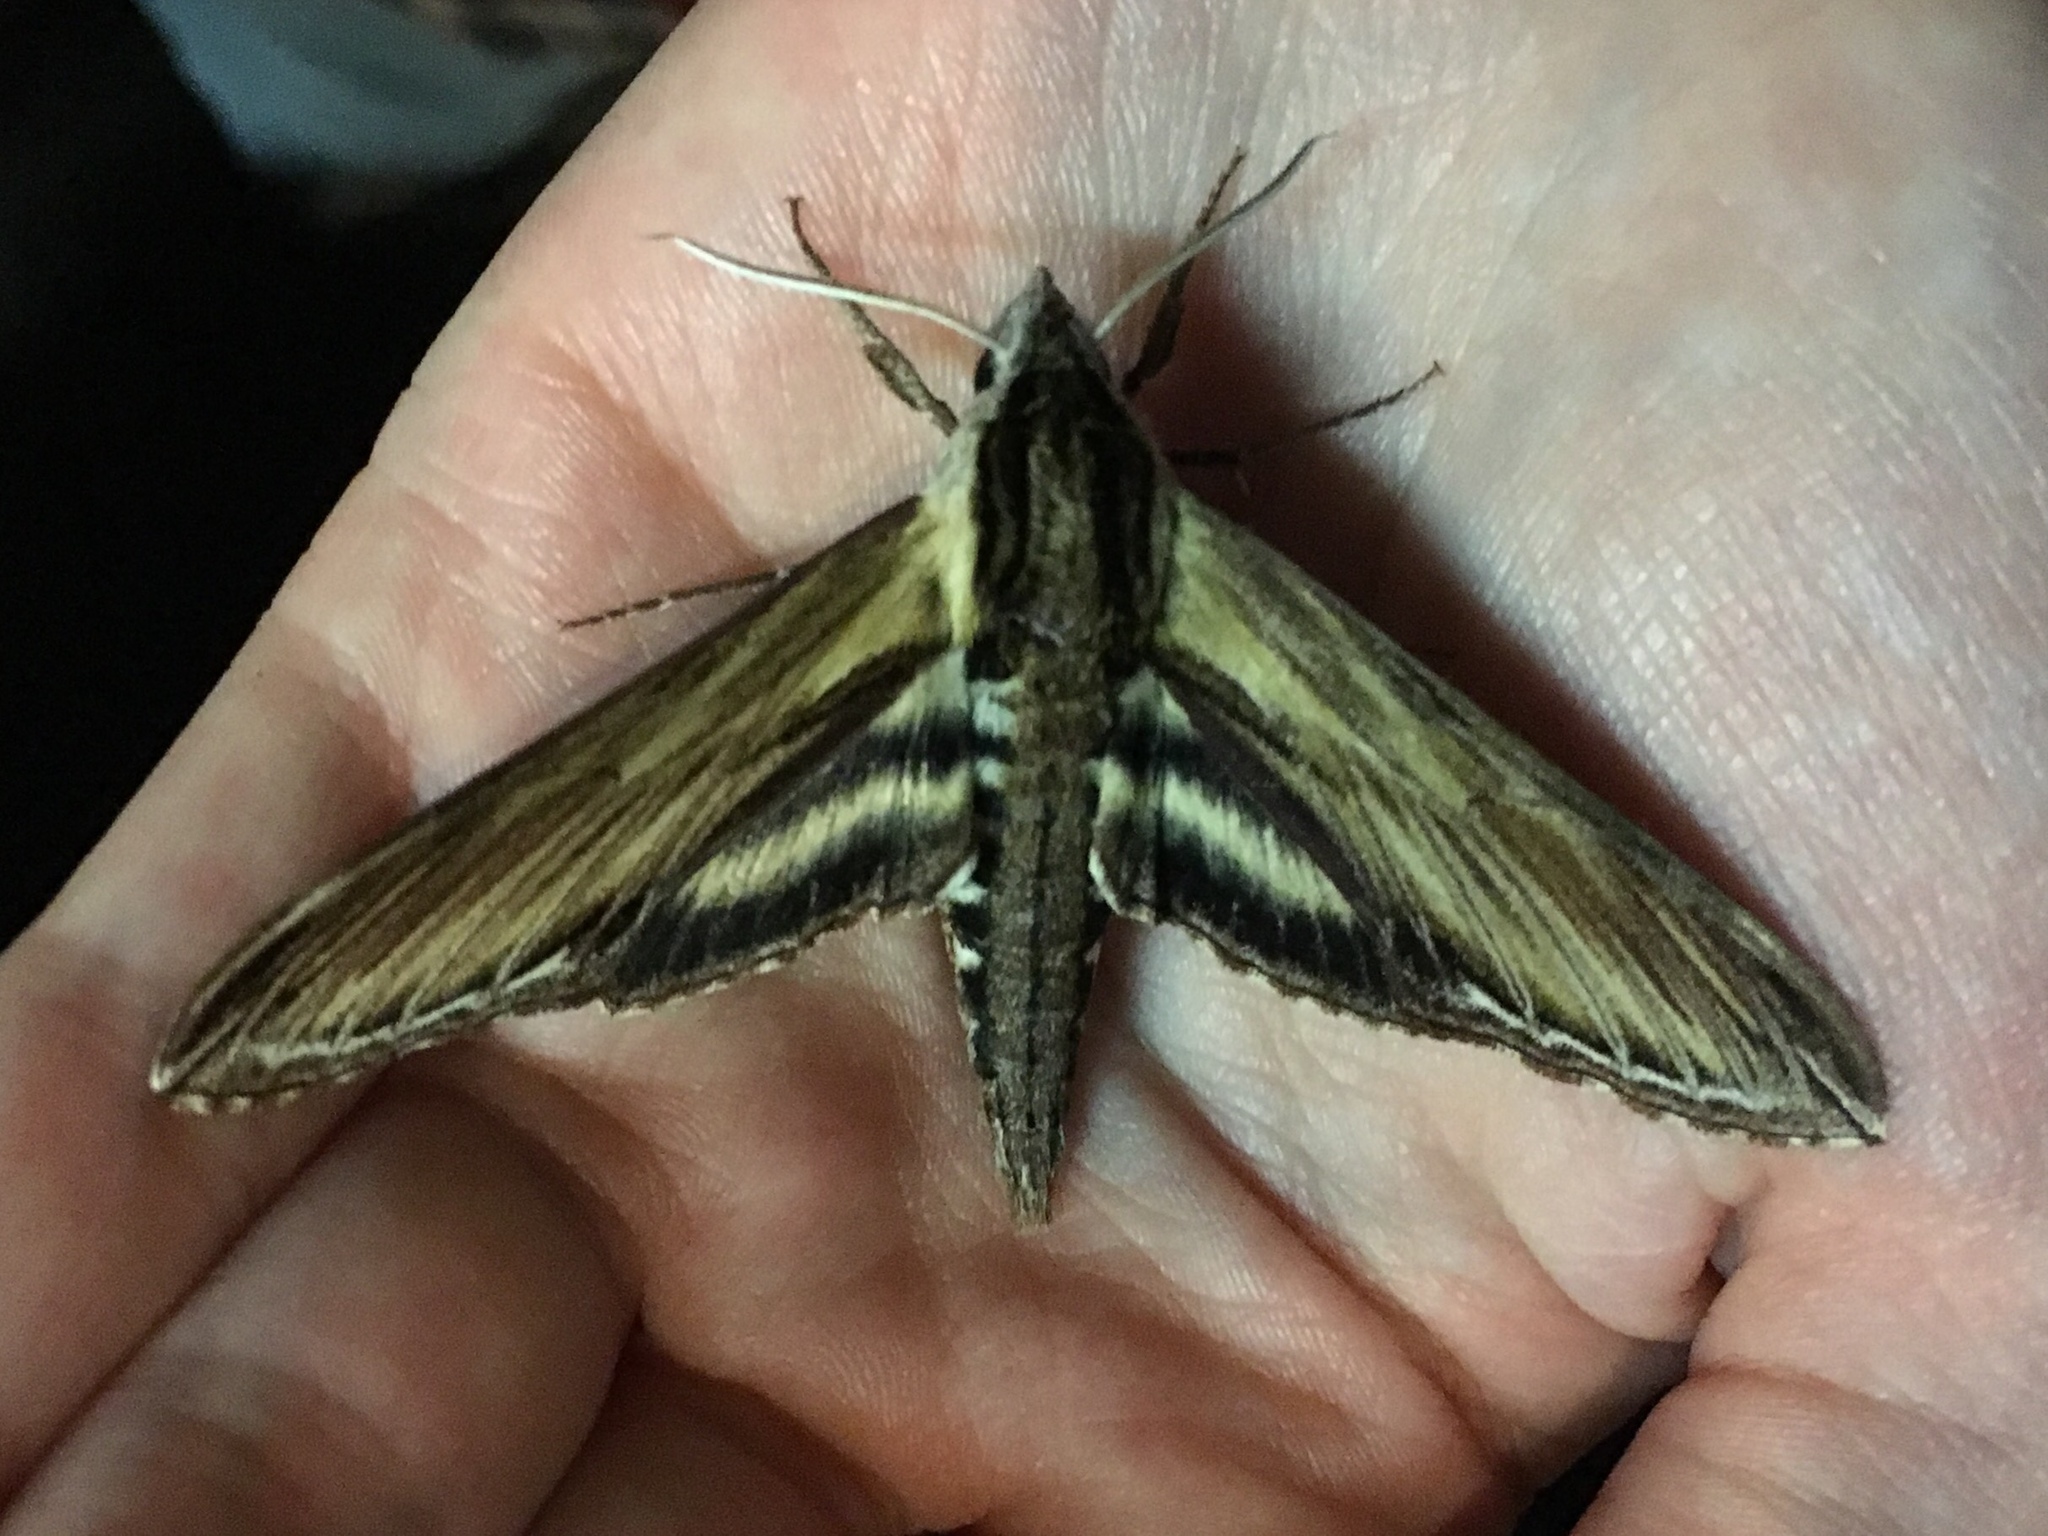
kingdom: Animalia
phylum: Arthropoda
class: Insecta
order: Lepidoptera
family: Sphingidae
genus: Sphinx
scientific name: Sphinx kalmiae
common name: Laurel sphinx
